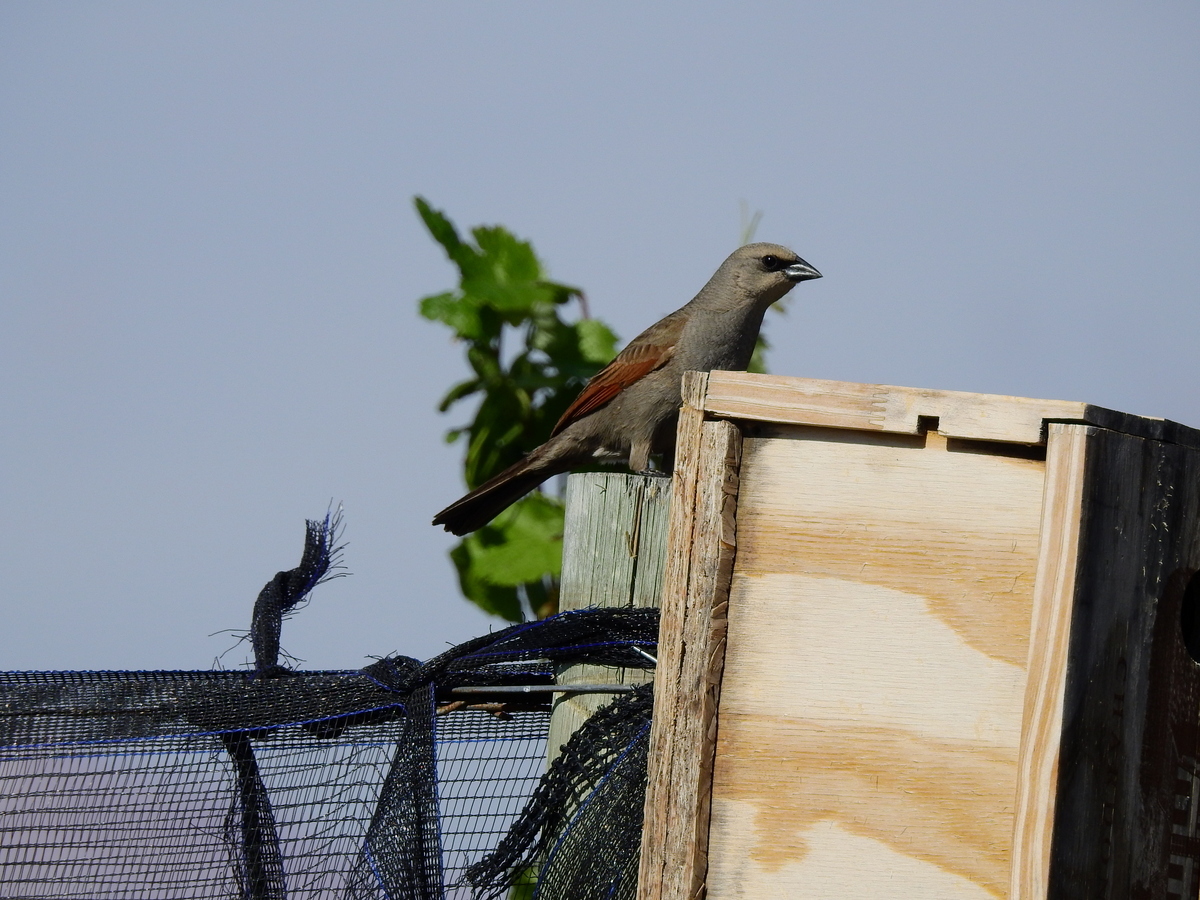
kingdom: Animalia
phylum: Chordata
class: Aves
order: Passeriformes
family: Icteridae
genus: Agelaioides
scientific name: Agelaioides badius
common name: Baywing
